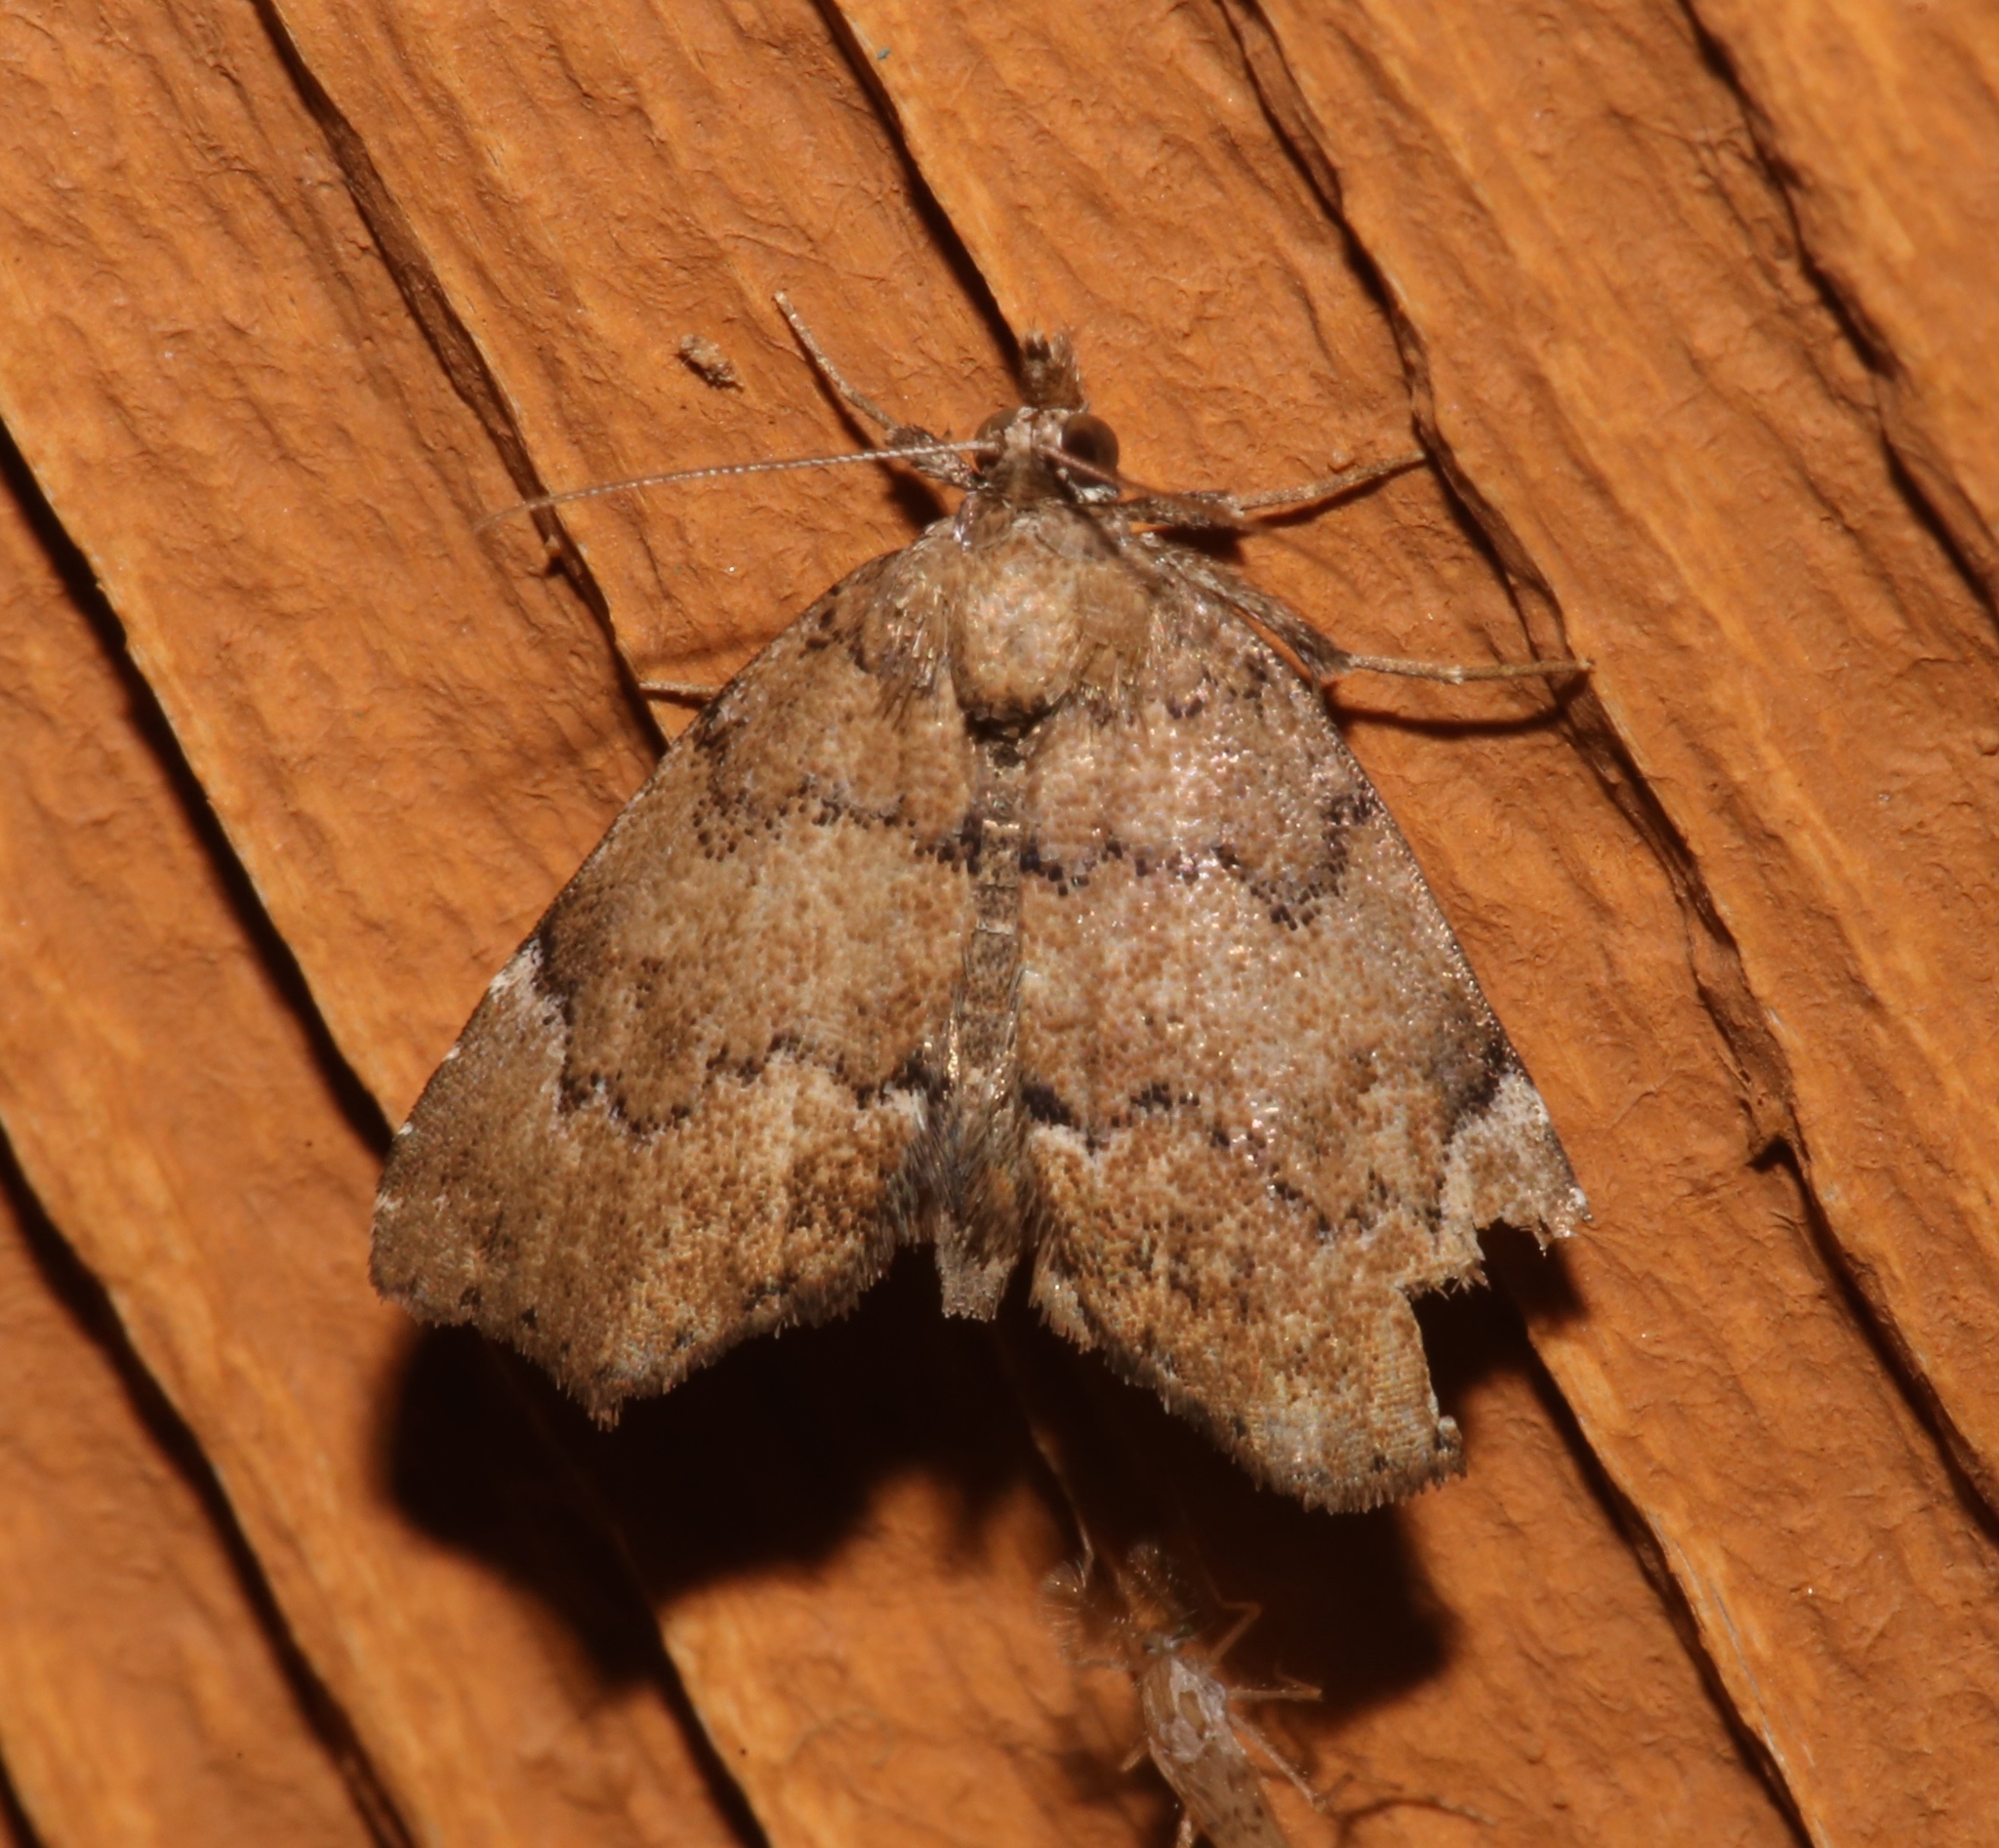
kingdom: Animalia
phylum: Arthropoda
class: Insecta
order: Lepidoptera
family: Erebidae
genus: Cutina
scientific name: Cutina aluticolor
